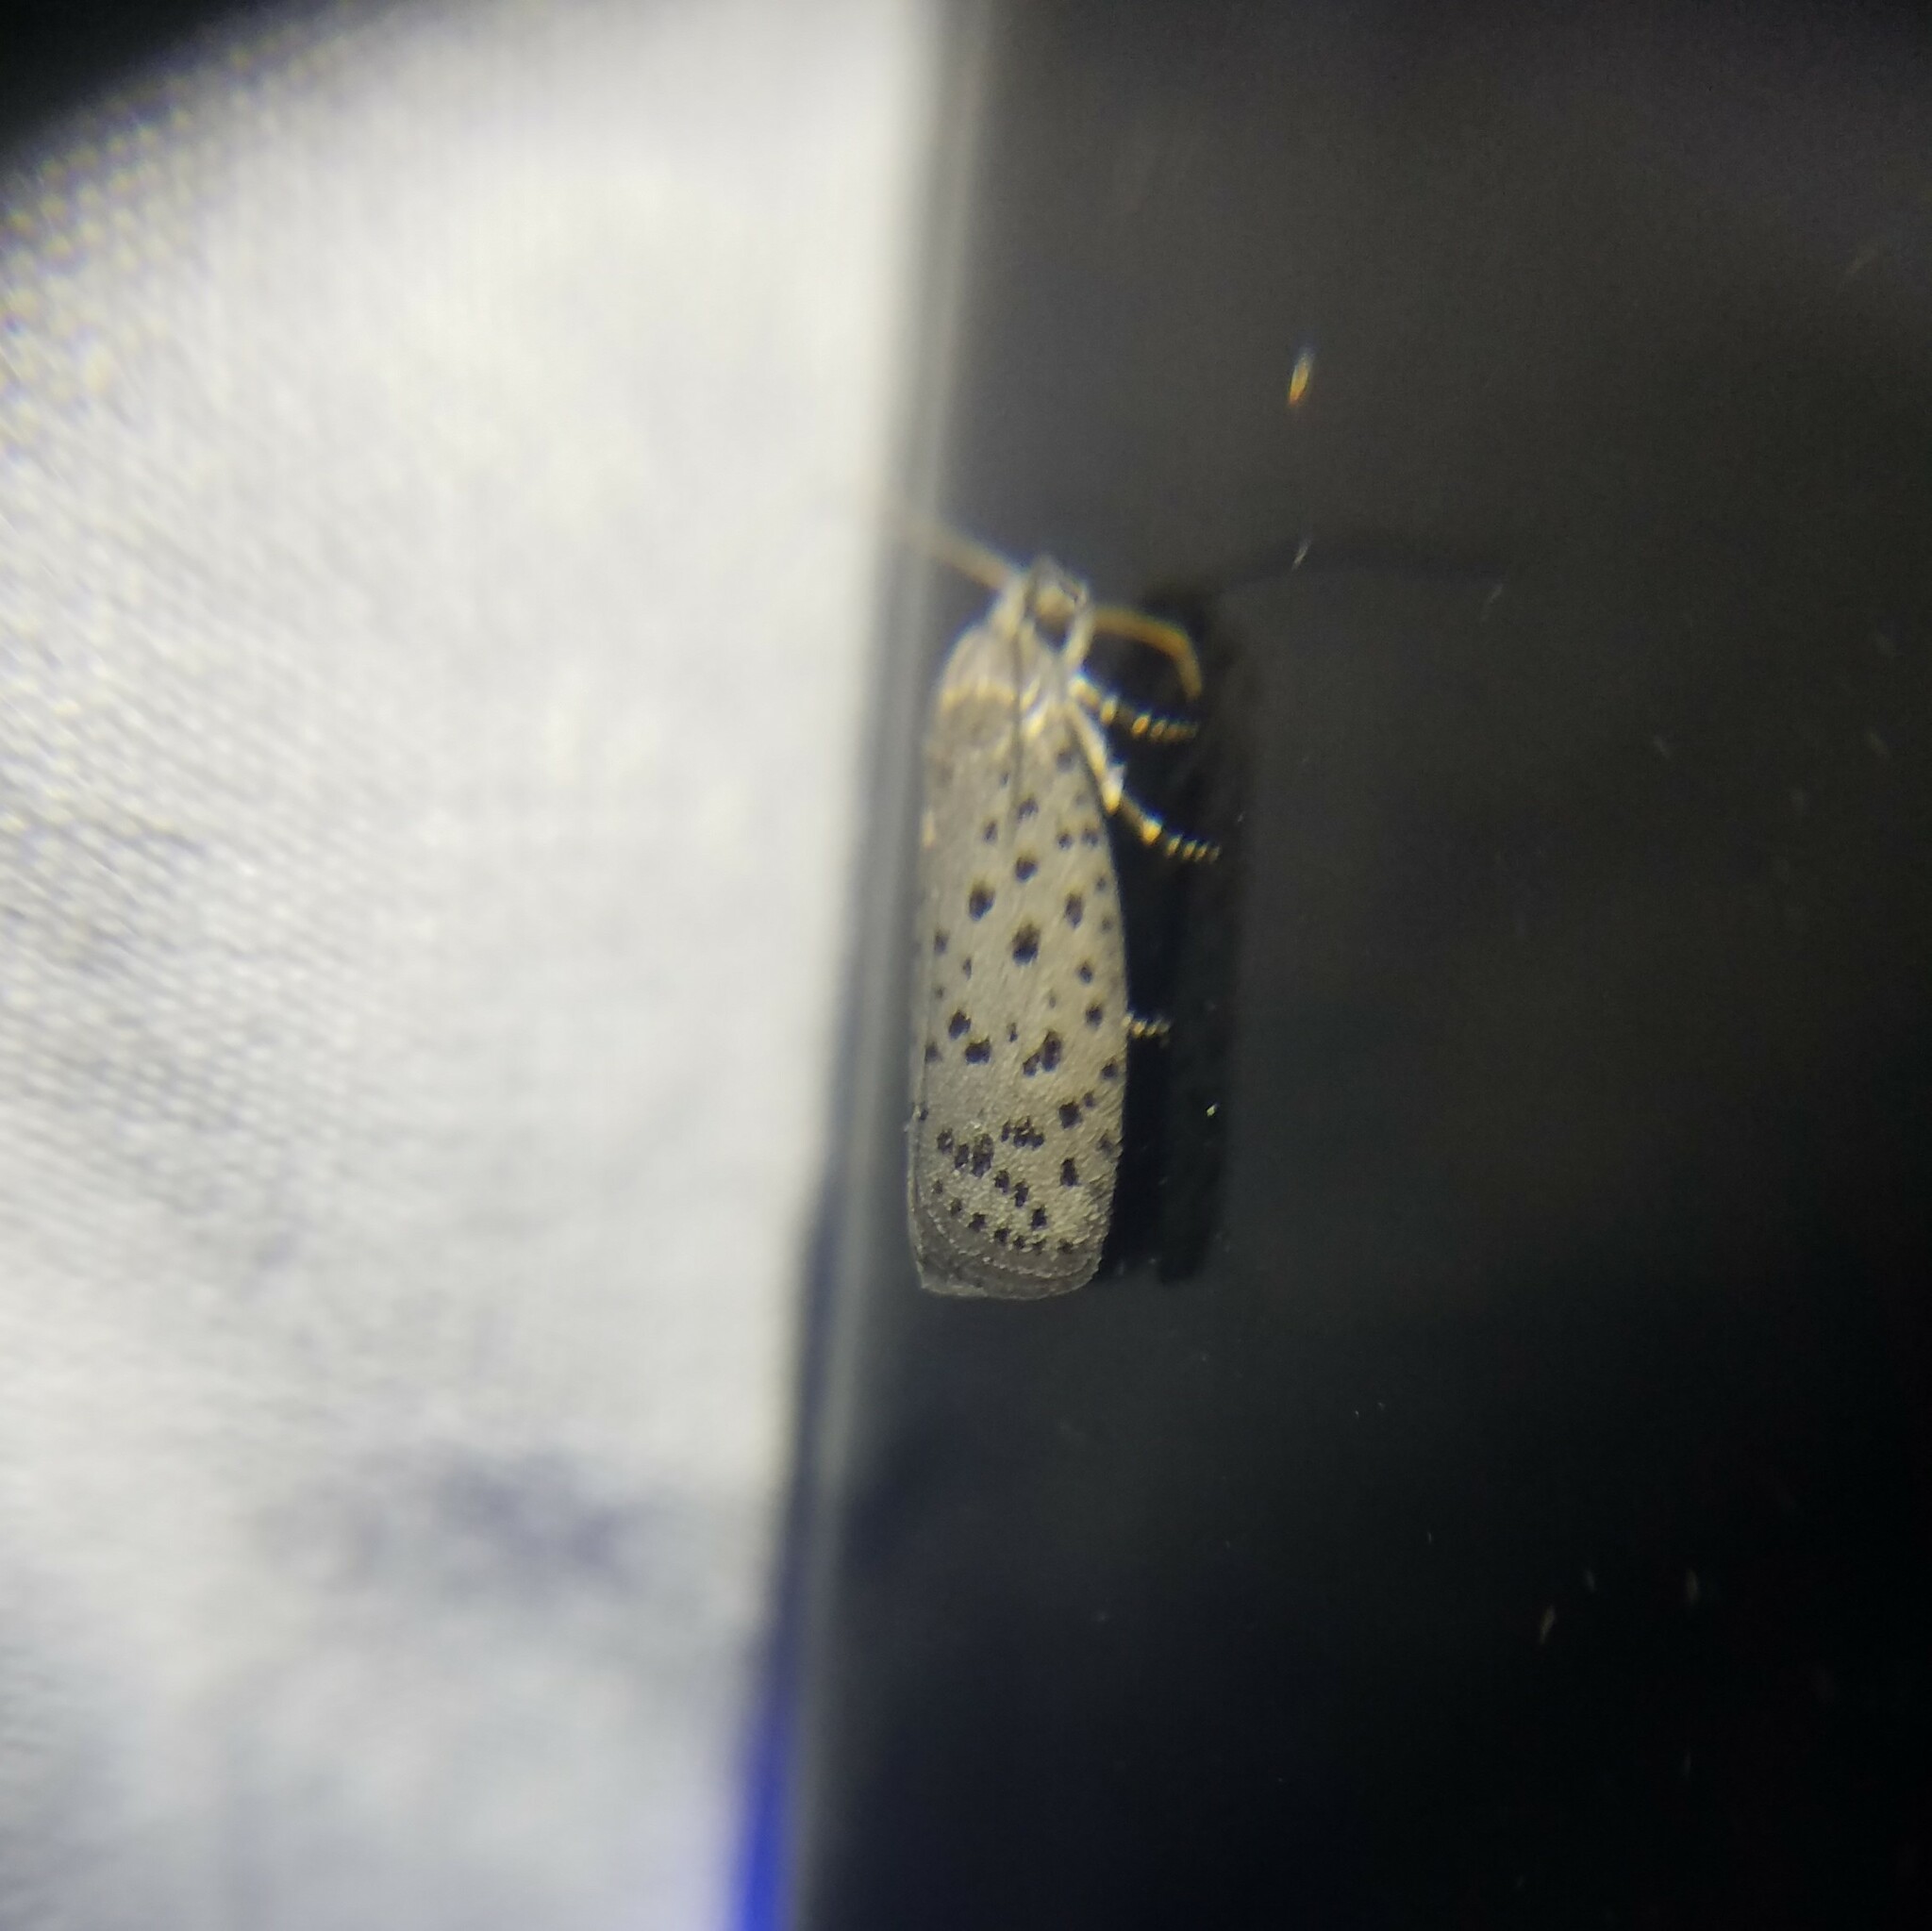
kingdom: Animalia
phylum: Arthropoda
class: Insecta
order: Lepidoptera
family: Galacticidae
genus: Homadaula
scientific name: Homadaula anisocentra
